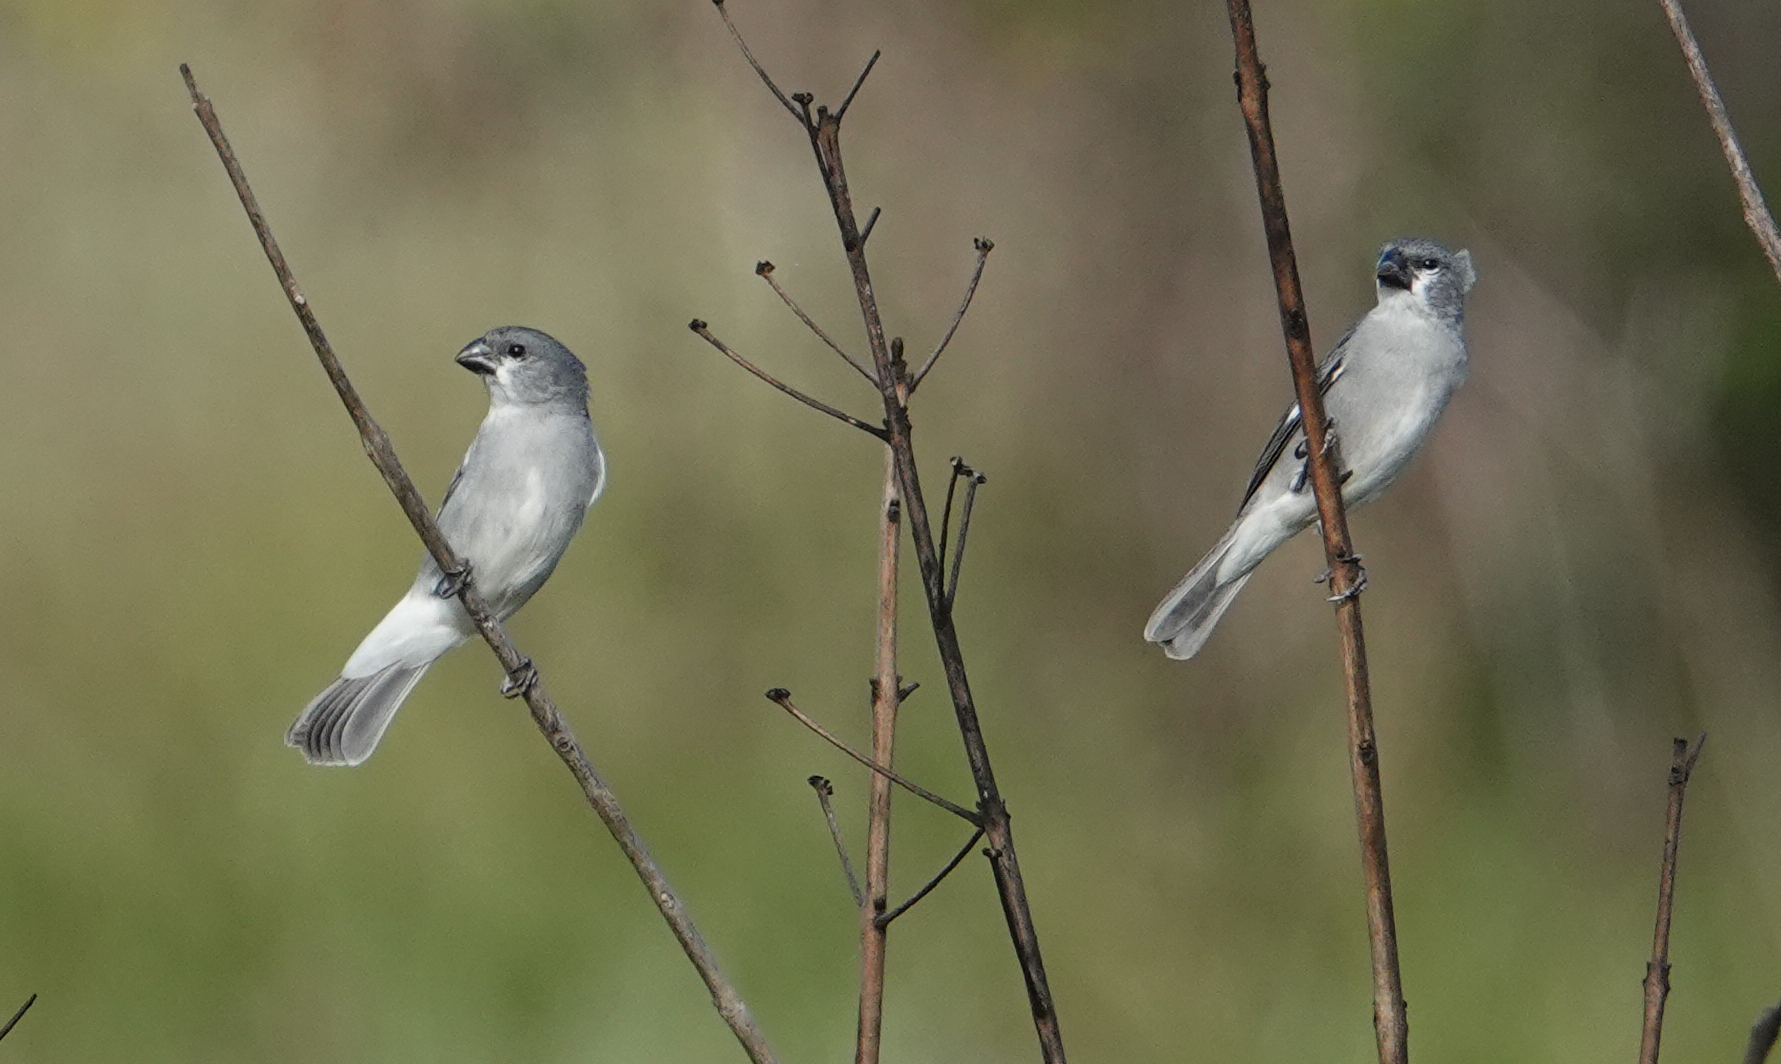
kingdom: Animalia
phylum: Chordata
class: Aves
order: Passeriformes
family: Thraupidae
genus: Sporophila
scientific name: Sporophila plumbea
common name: Plumbeous seedeater
